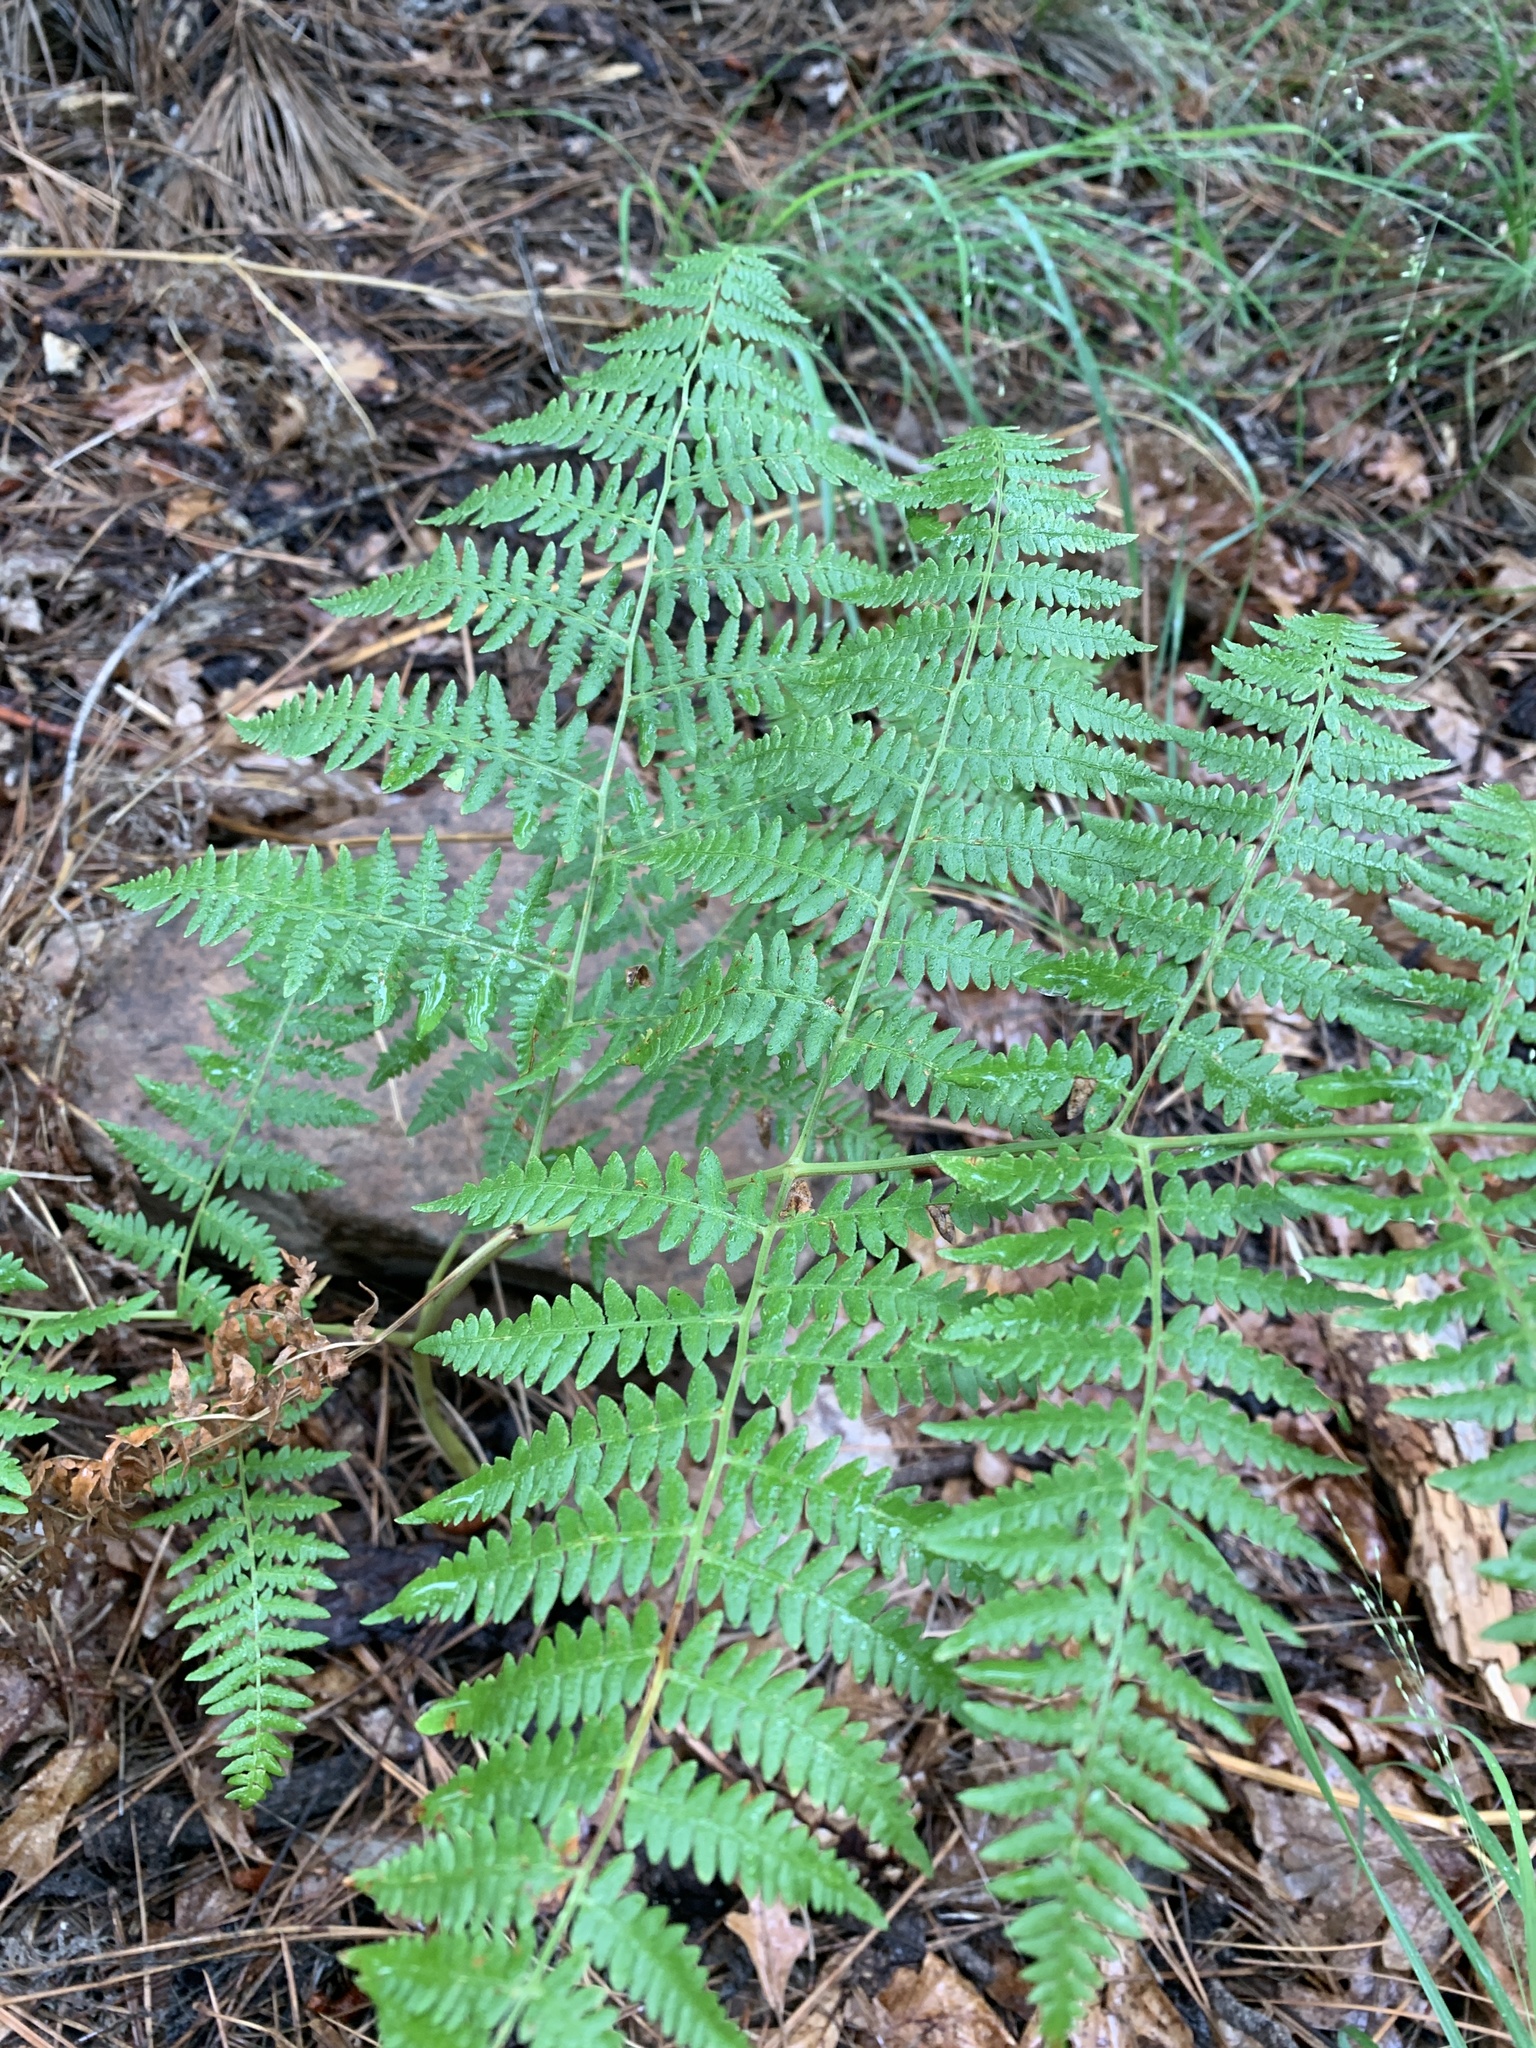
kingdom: Plantae
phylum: Tracheophyta
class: Polypodiopsida
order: Polypodiales
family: Dennstaedtiaceae
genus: Pteridium
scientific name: Pteridium aquilinum
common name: Bracken
